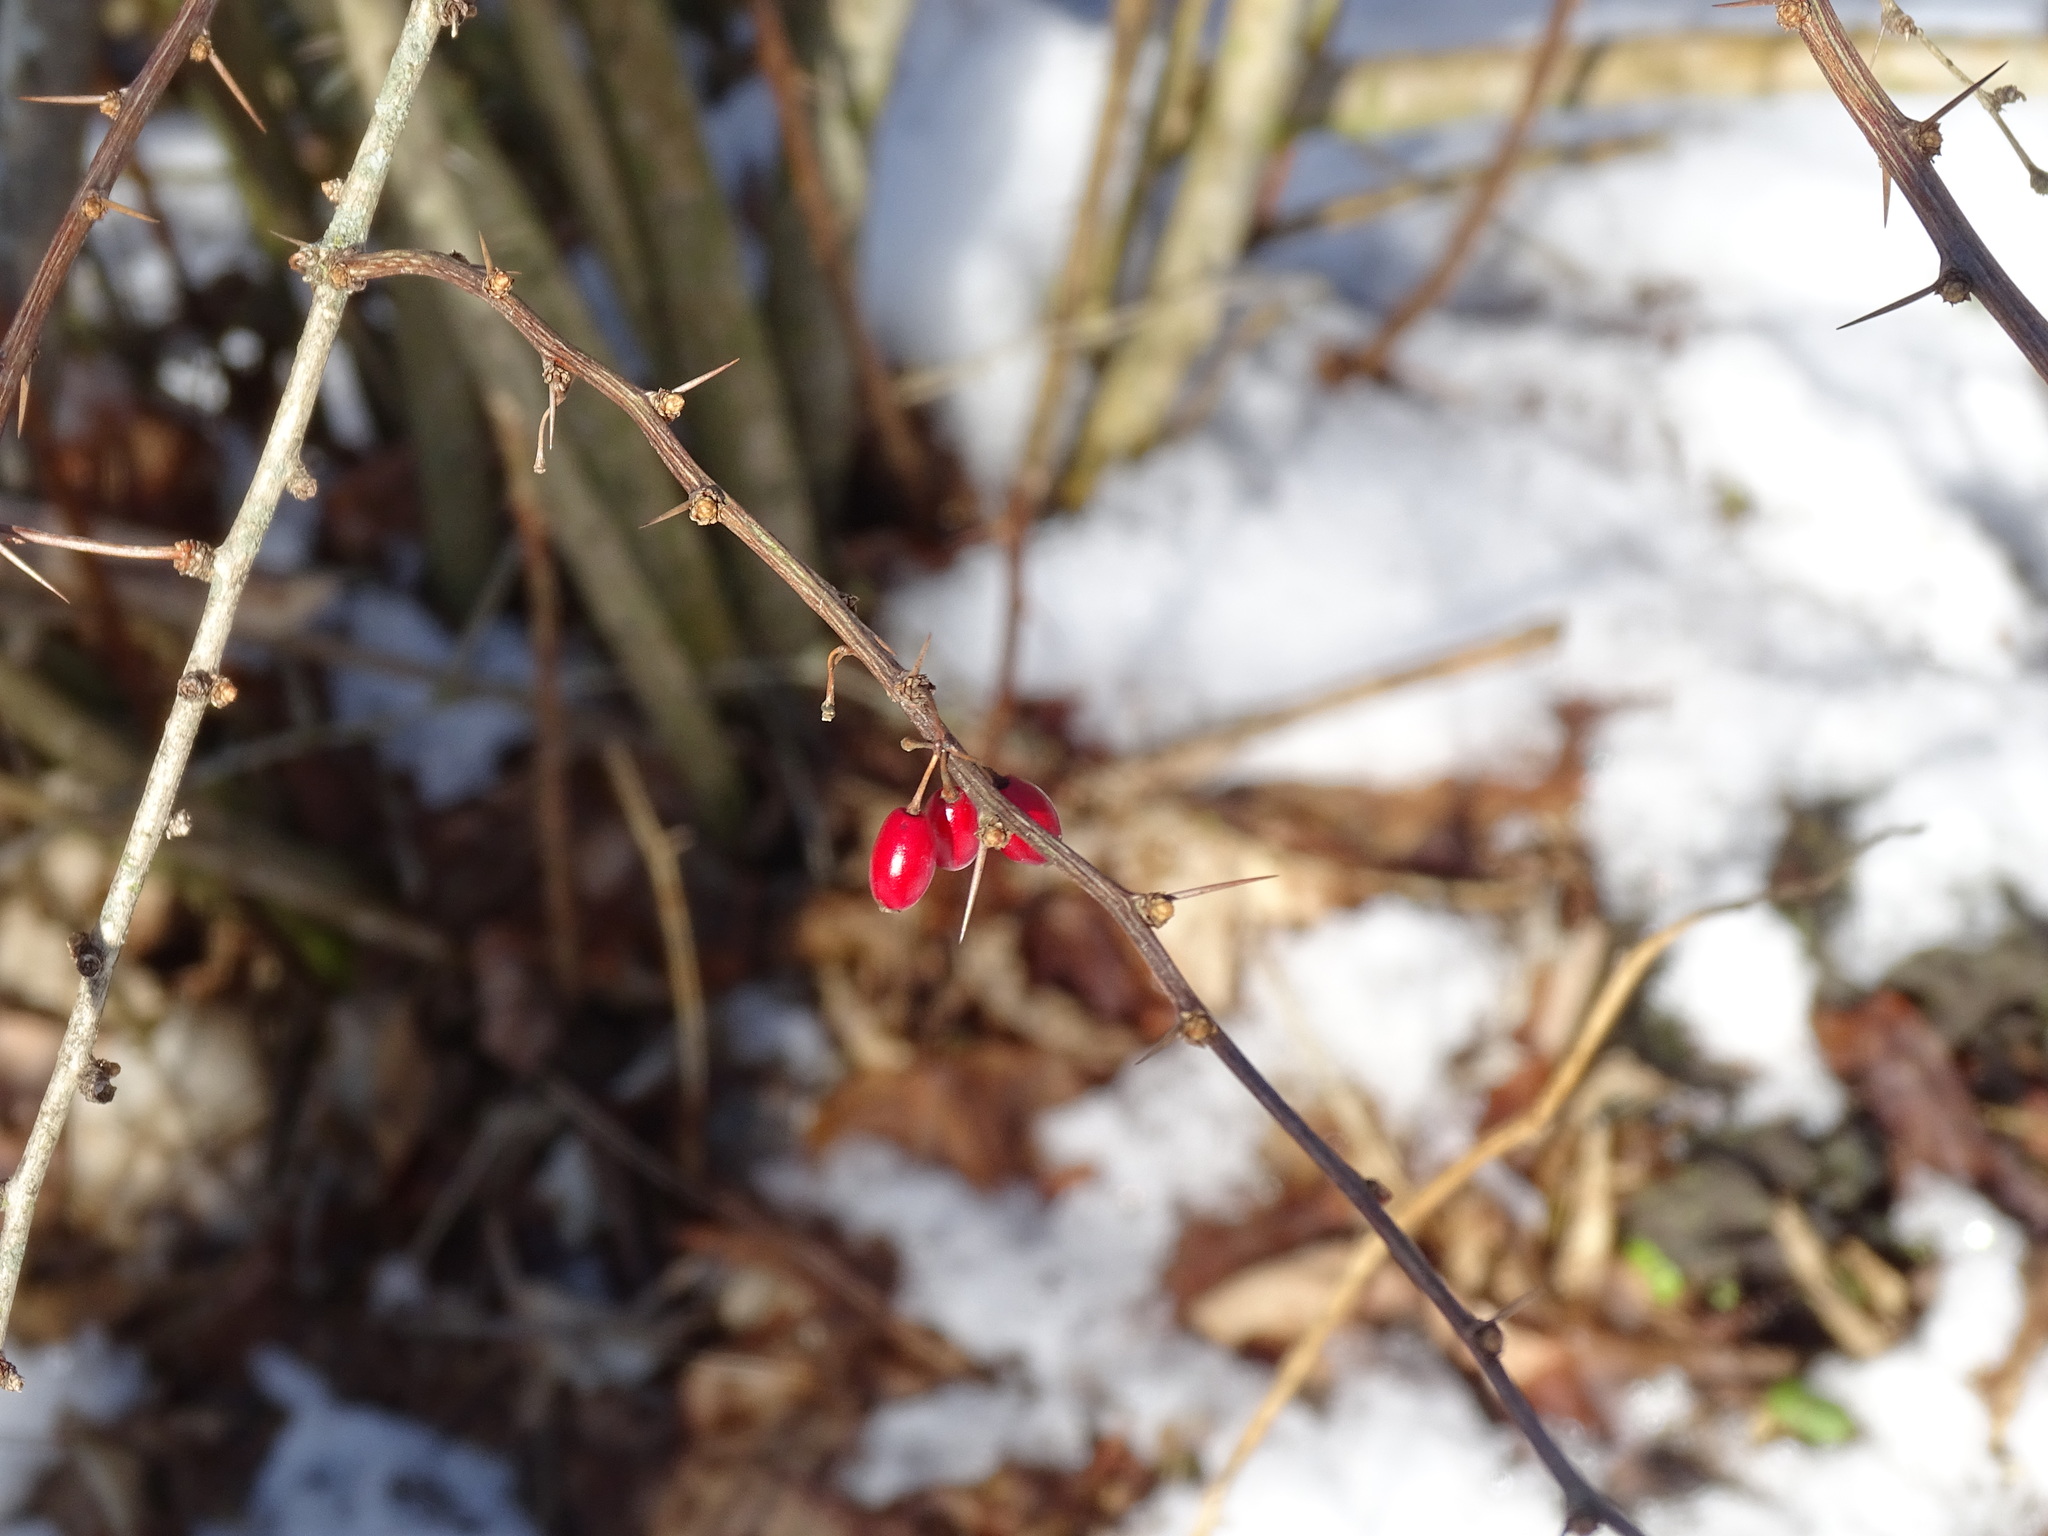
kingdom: Plantae
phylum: Tracheophyta
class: Magnoliopsida
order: Ranunculales
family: Berberidaceae
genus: Berberis
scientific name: Berberis thunbergii
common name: Japanese barberry
